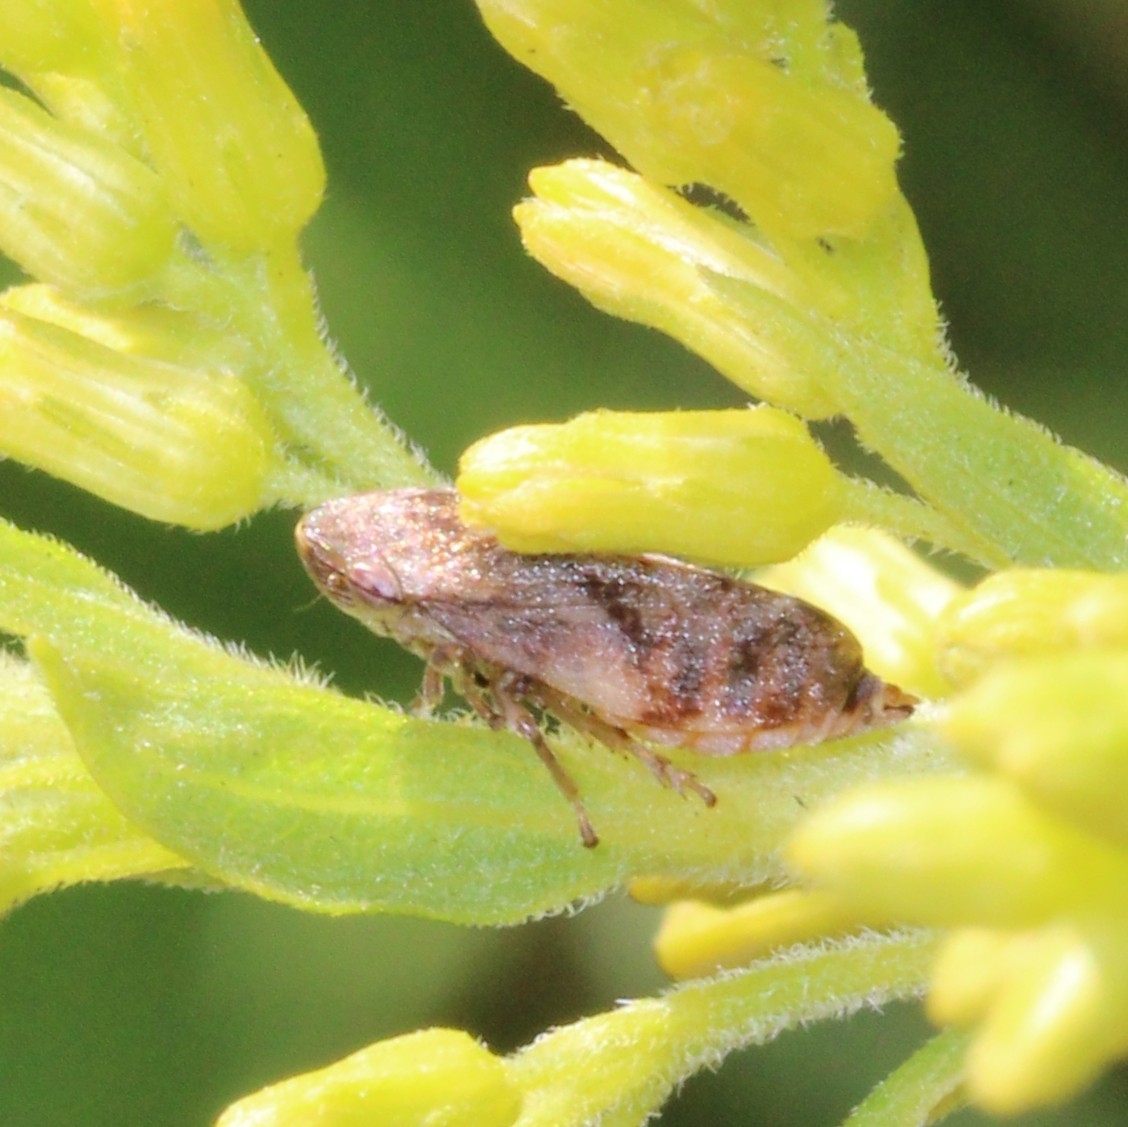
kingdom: Animalia
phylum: Arthropoda
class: Insecta
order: Hemiptera
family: Aphrophoridae
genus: Philaenus
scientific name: Philaenus spumarius
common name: Meadow spittlebug
